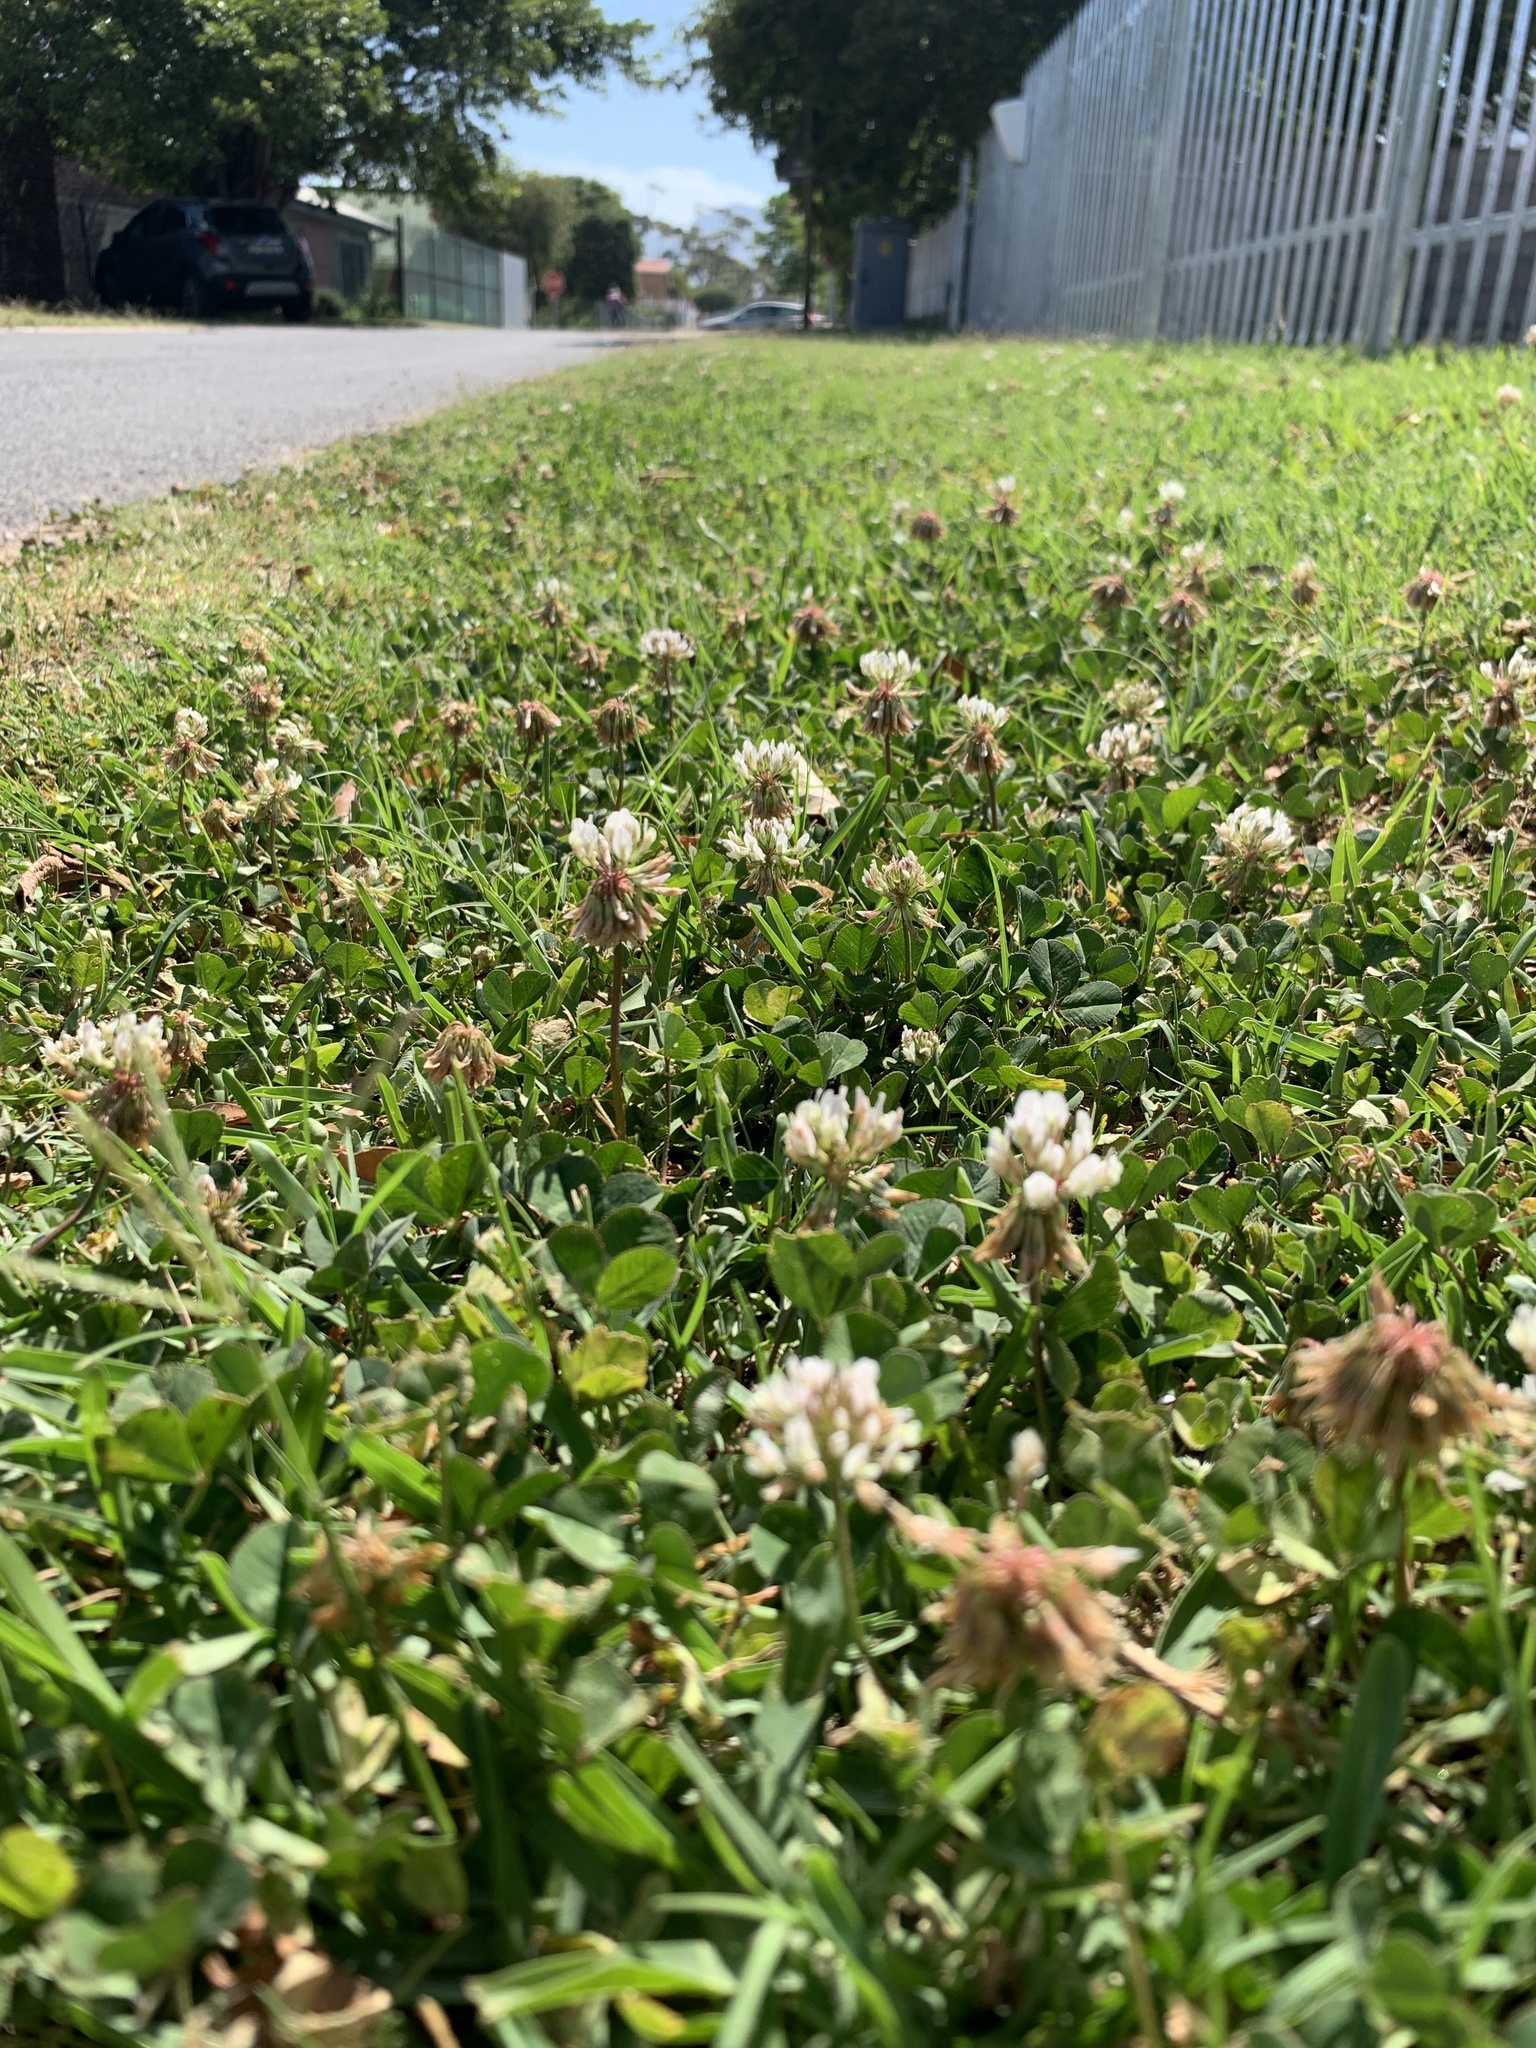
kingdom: Plantae
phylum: Tracheophyta
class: Magnoliopsida
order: Fabales
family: Fabaceae
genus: Trifolium
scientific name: Trifolium repens
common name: White clover
